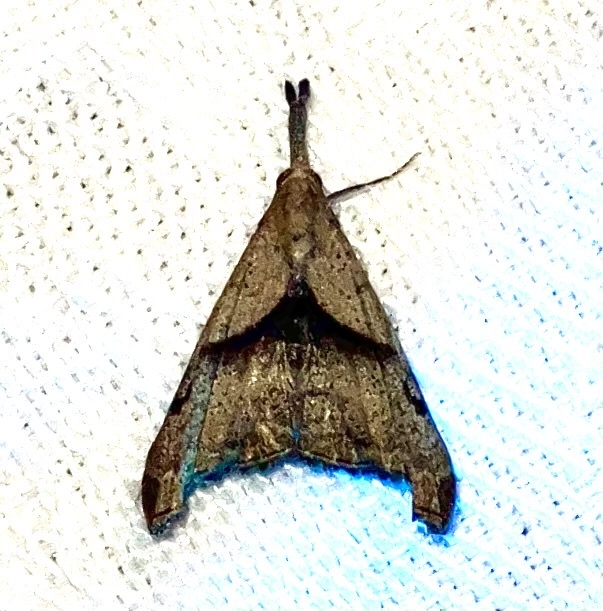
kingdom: Animalia
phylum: Arthropoda
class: Insecta
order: Lepidoptera
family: Erebidae
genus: Palthis
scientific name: Palthis angulalis
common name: Dark-spotted palthis moth
